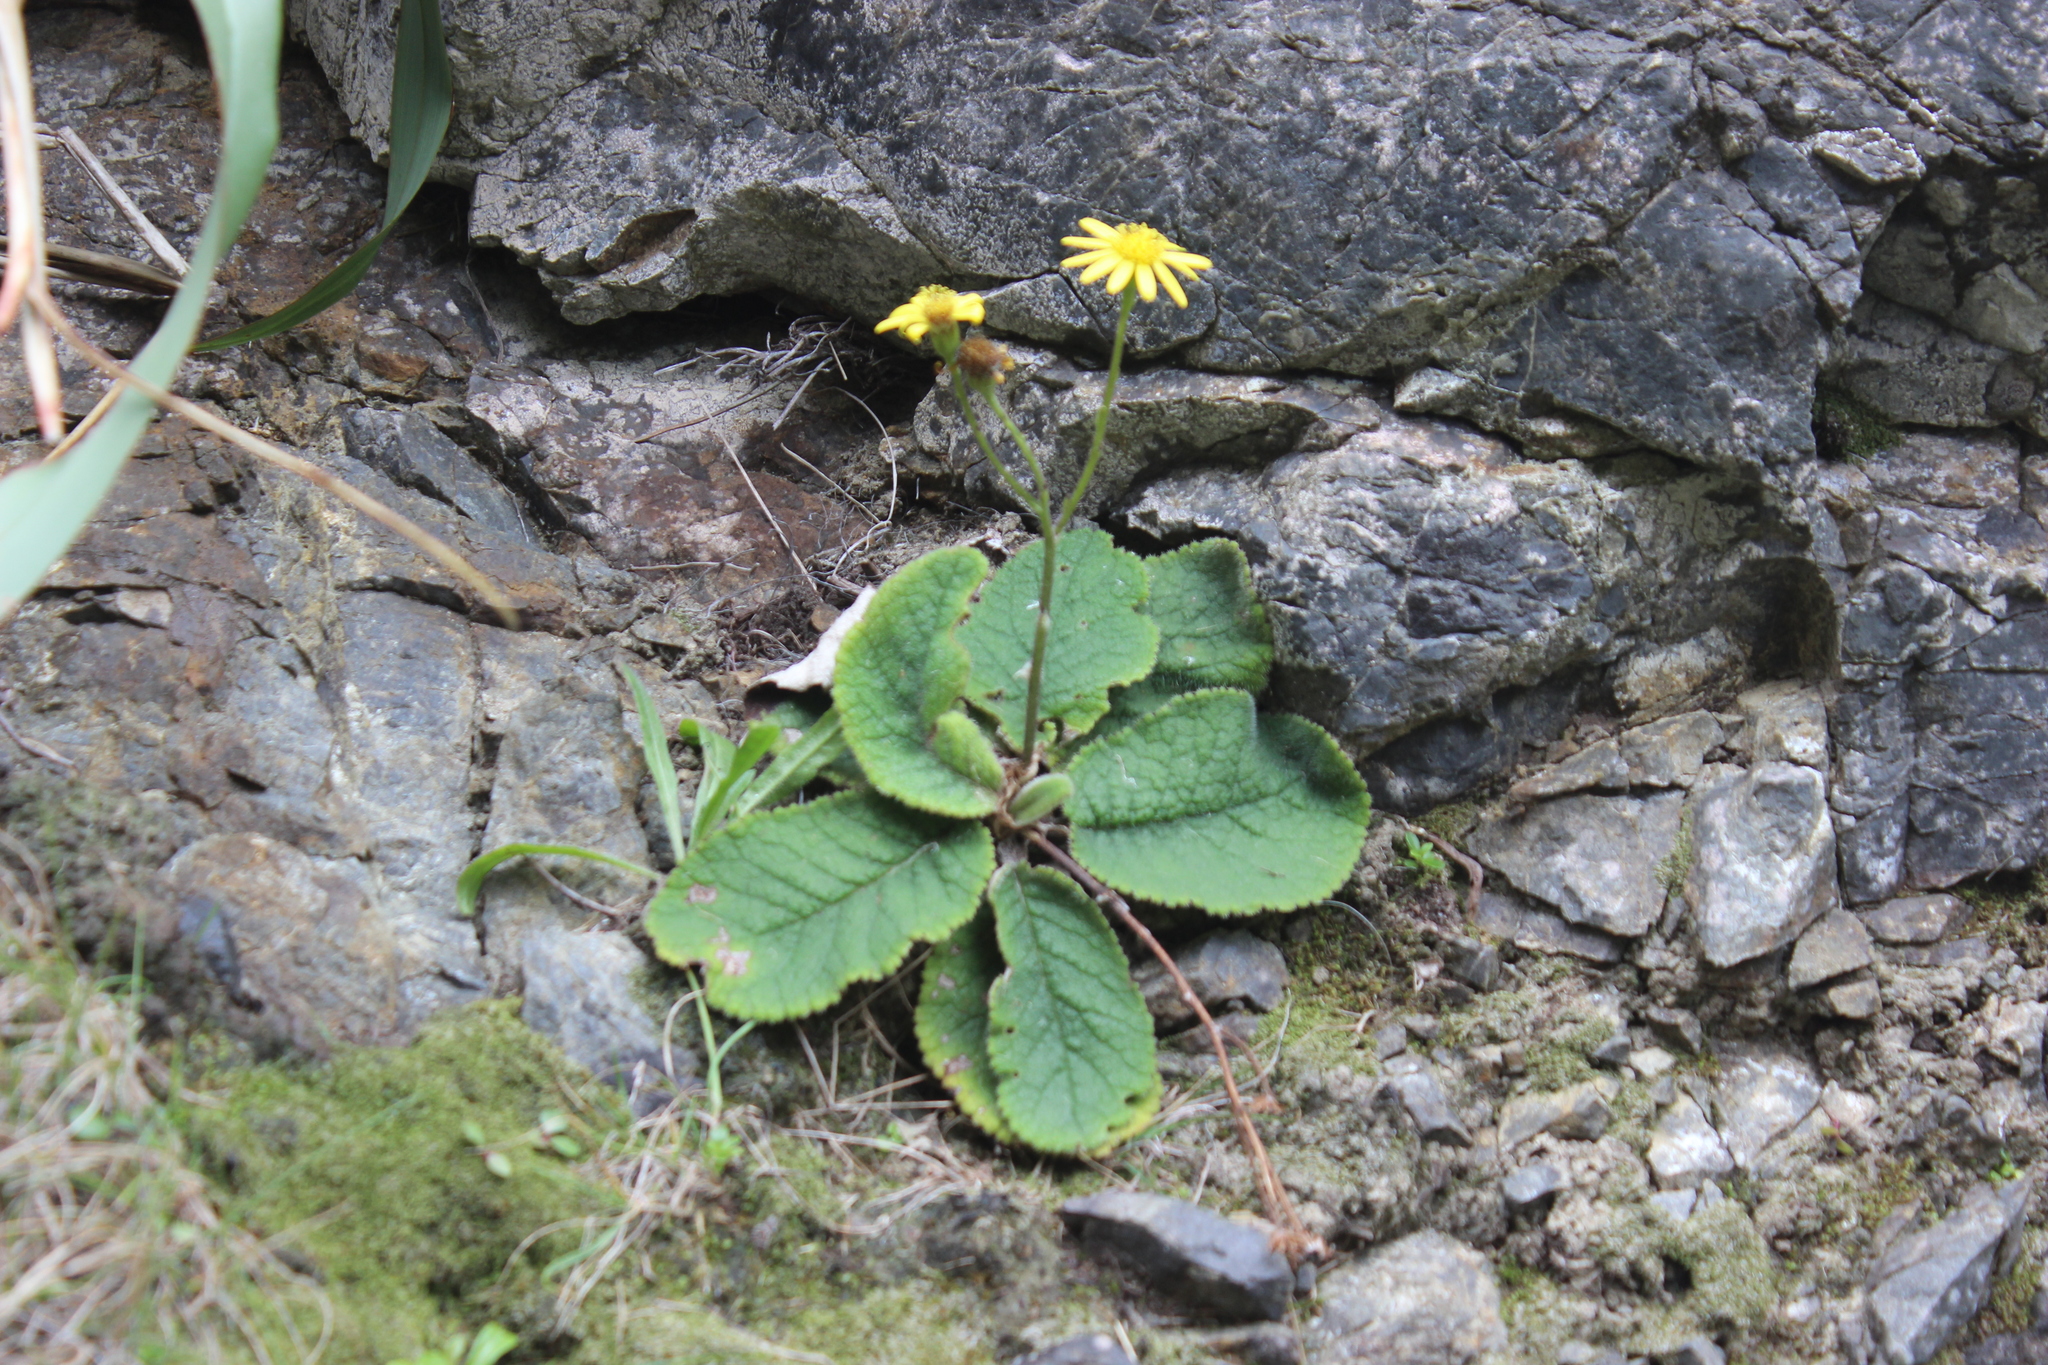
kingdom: Plantae
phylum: Tracheophyta
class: Magnoliopsida
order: Asterales
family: Asteraceae
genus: Brachyglottis
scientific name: Brachyglottis lagopus
